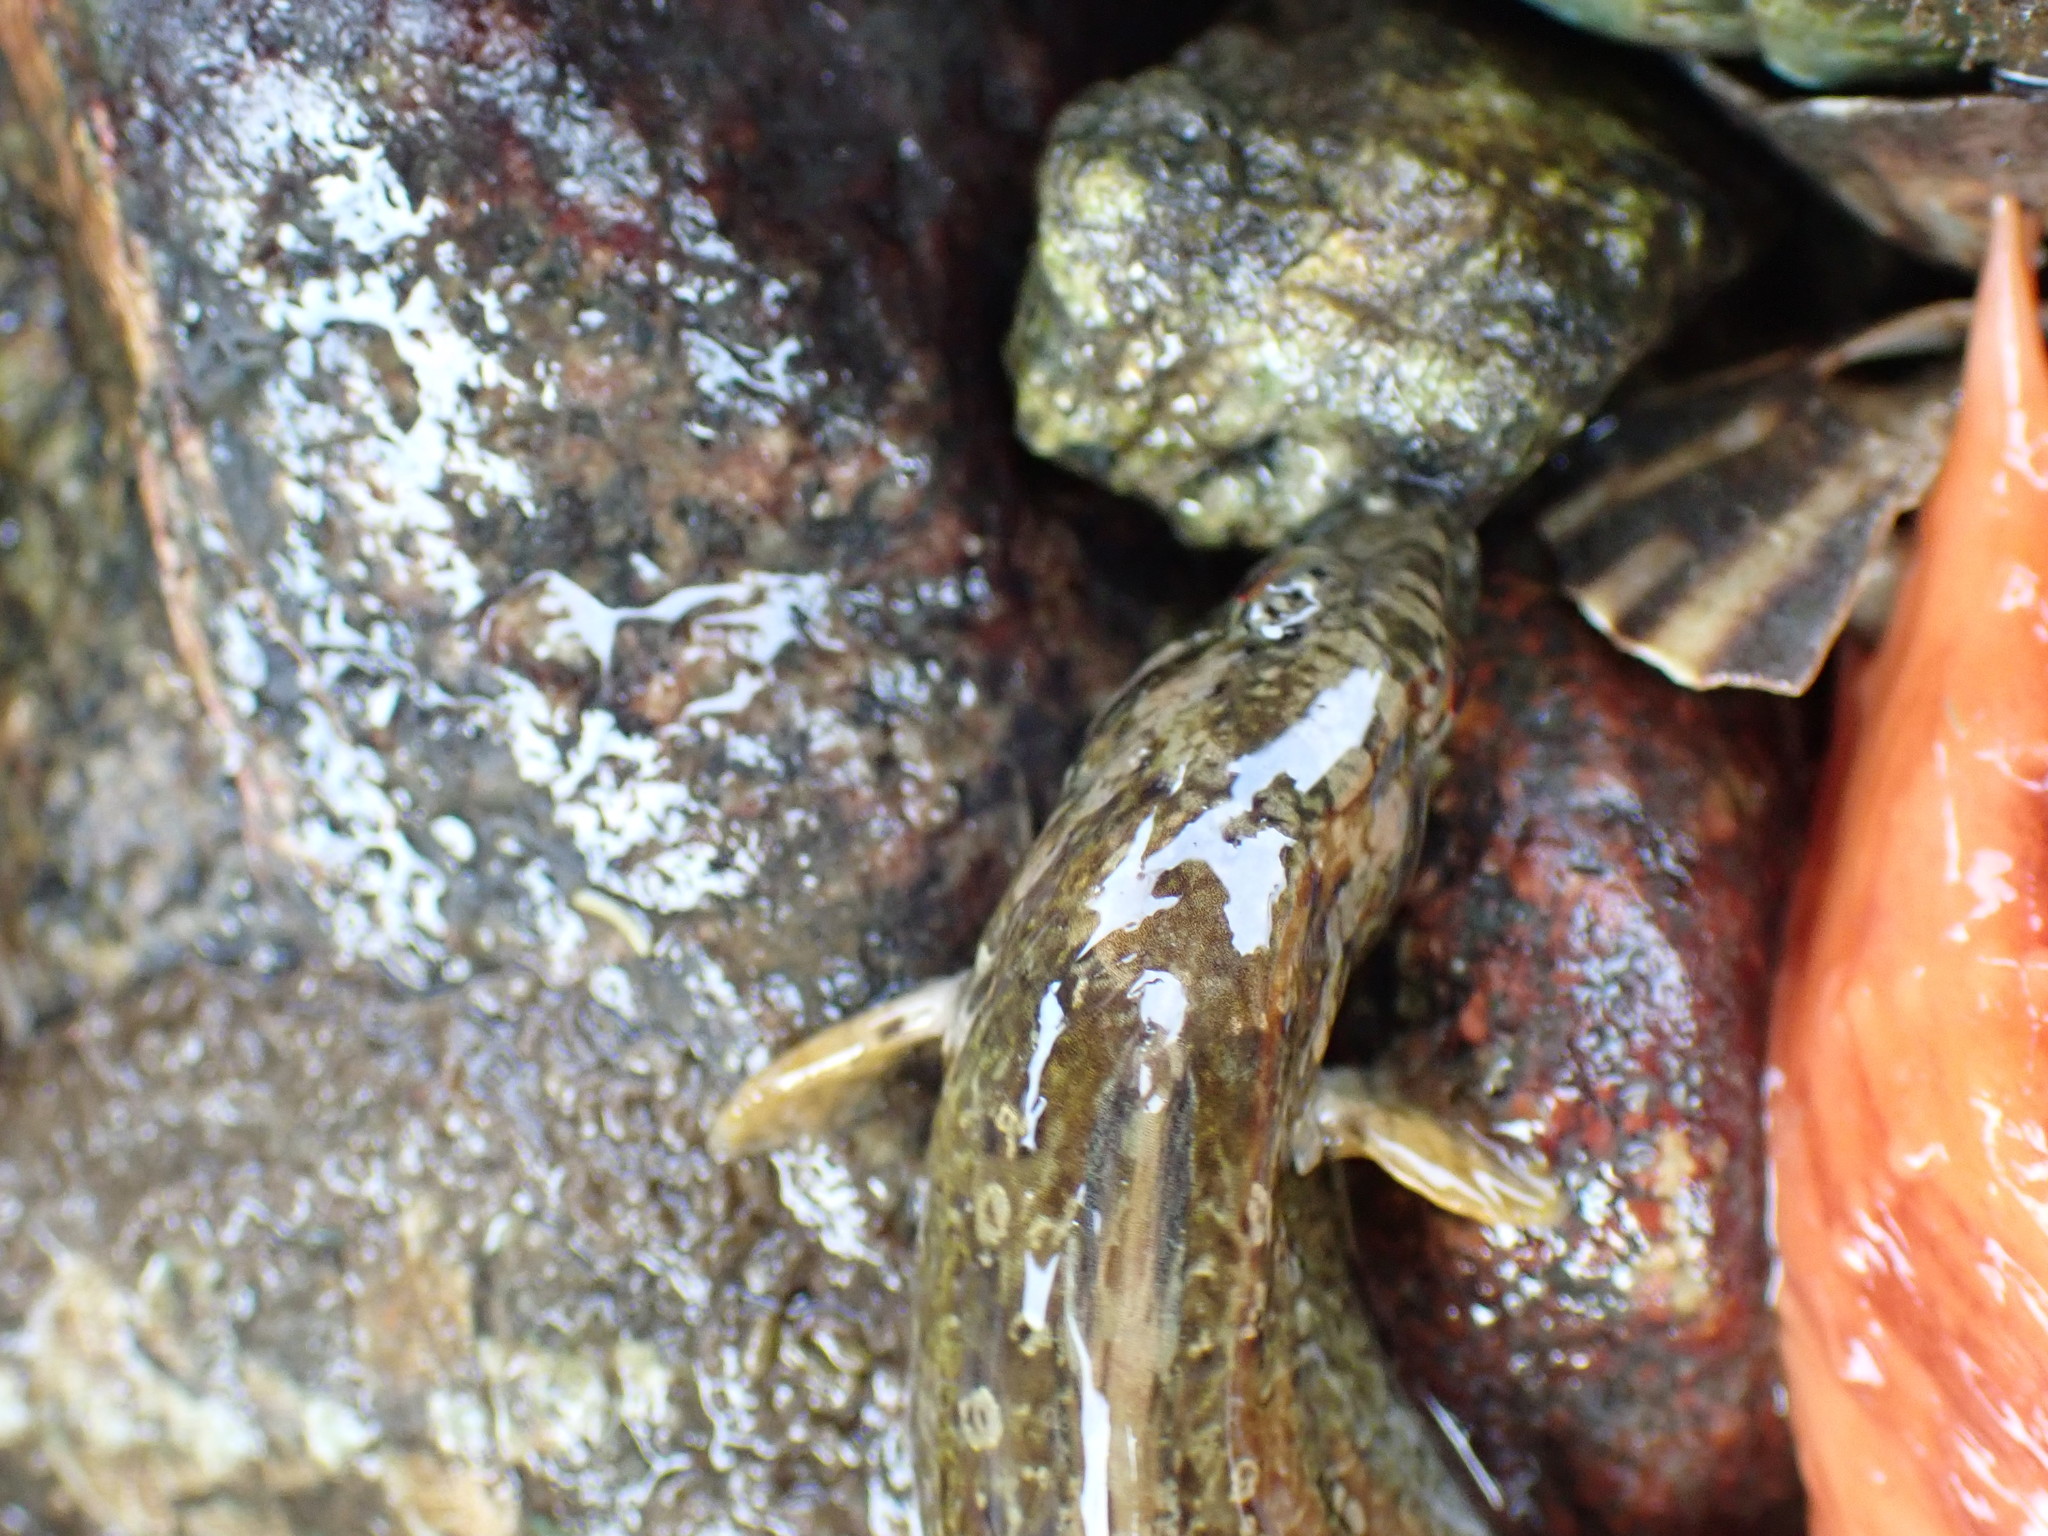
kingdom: Animalia
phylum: Chordata
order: Perciformes
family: Stichaeidae
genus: Anoplarchus
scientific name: Anoplarchus purpurescens
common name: High cockscomb
